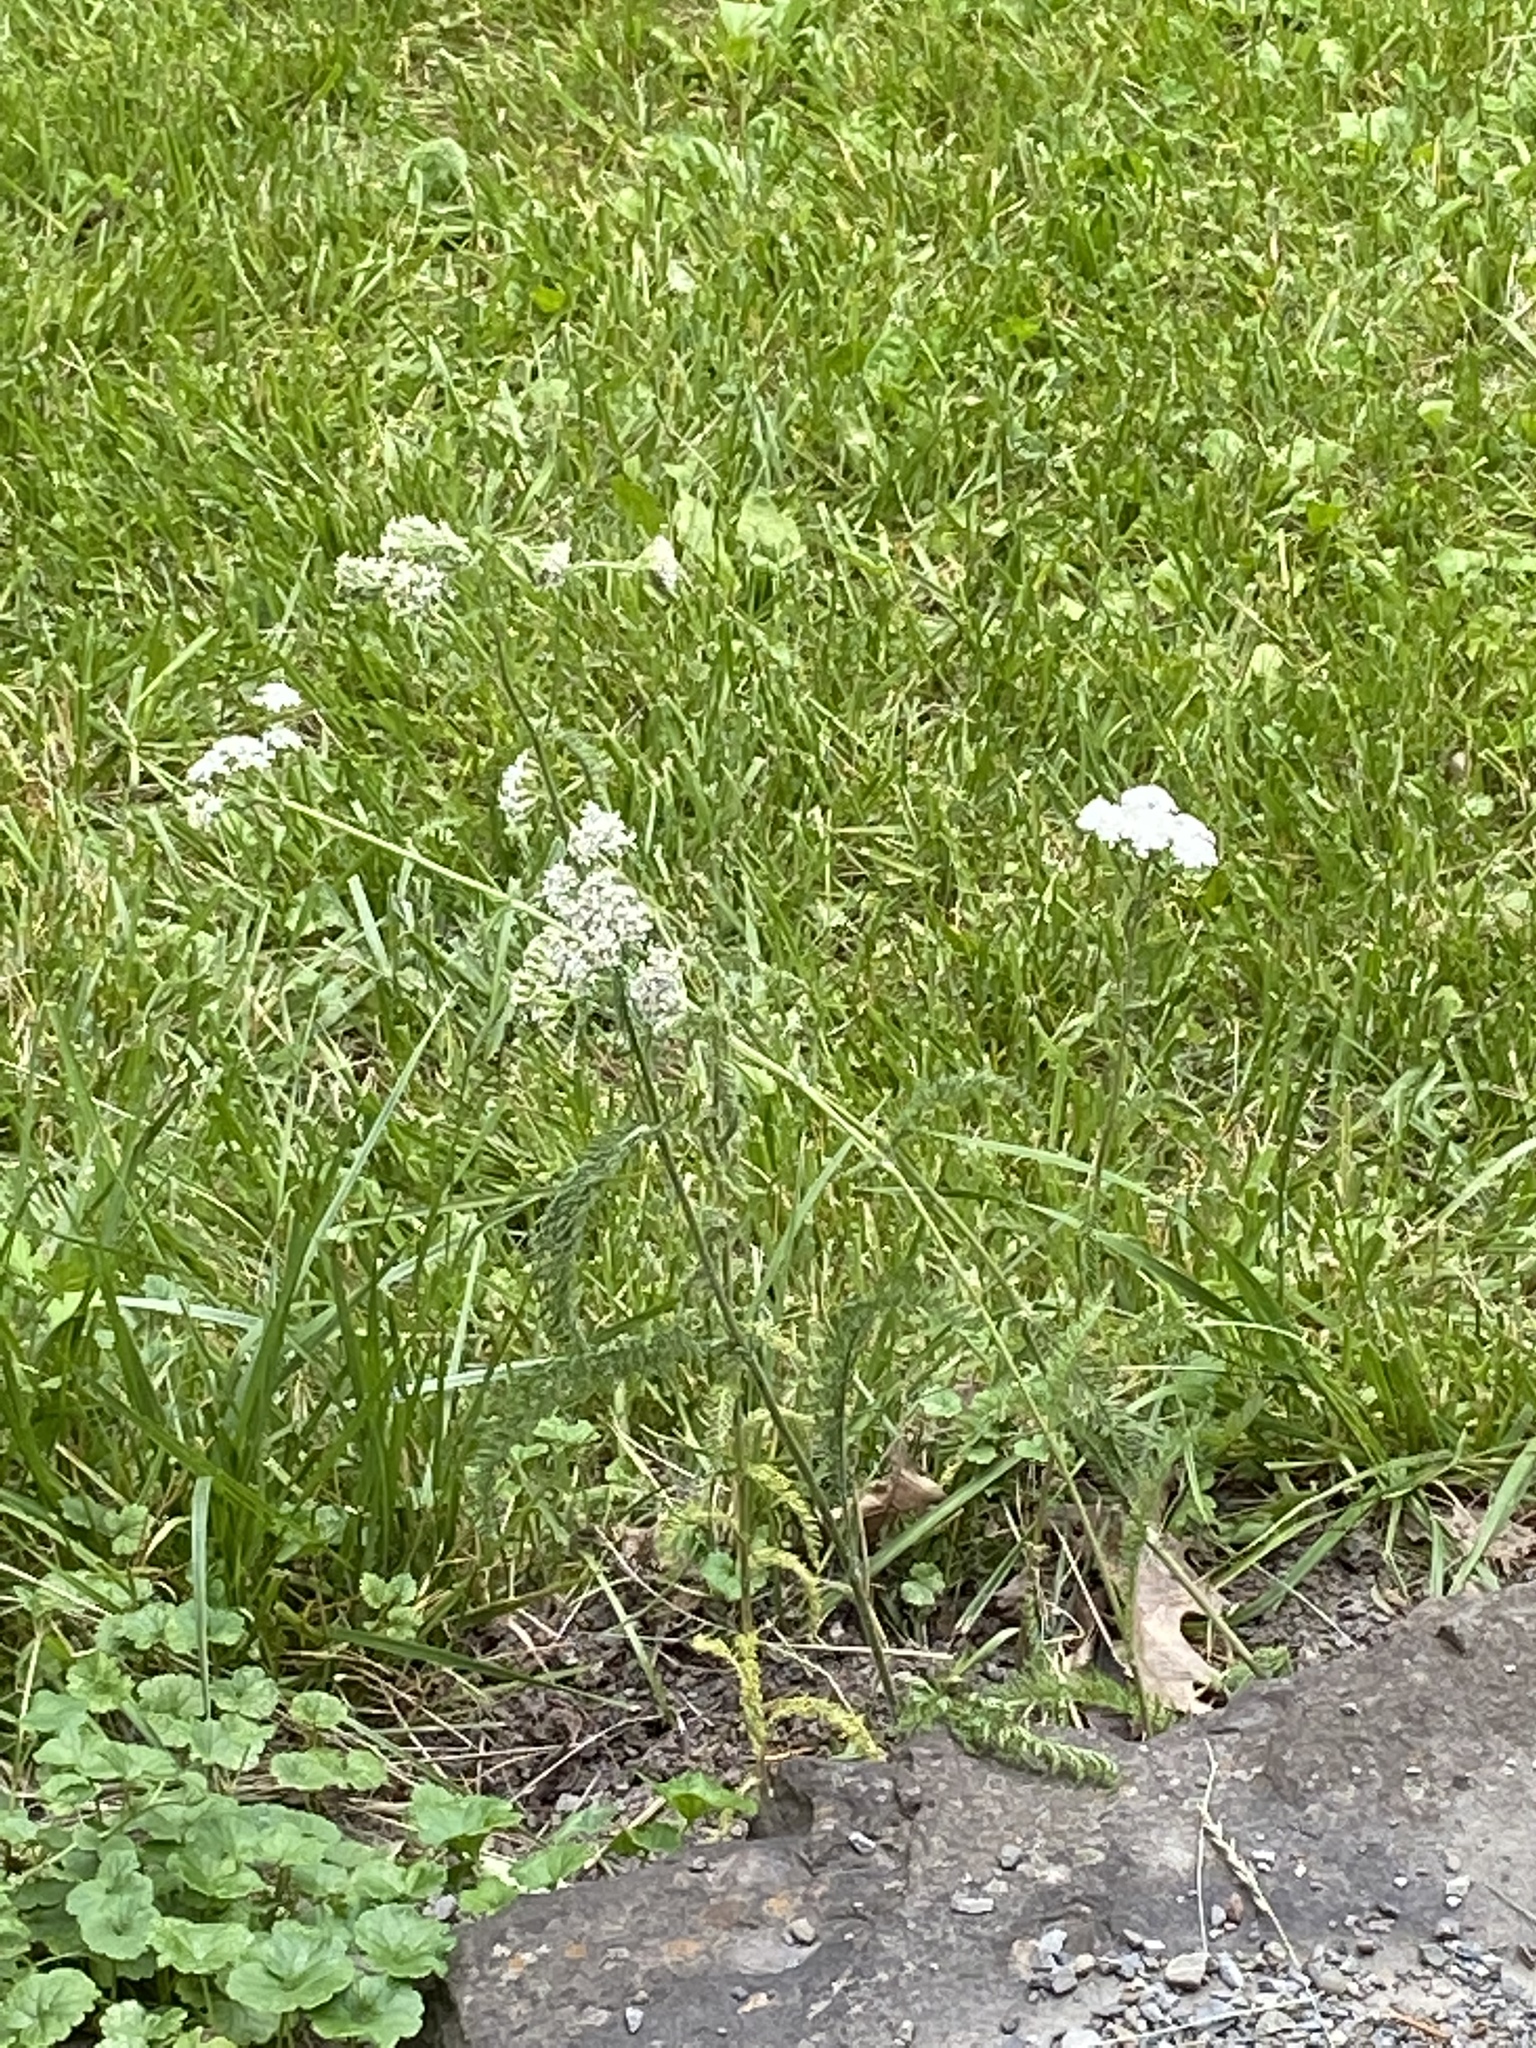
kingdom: Plantae
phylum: Tracheophyta
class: Magnoliopsida
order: Asterales
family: Asteraceae
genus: Achillea
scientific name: Achillea millefolium
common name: Yarrow
